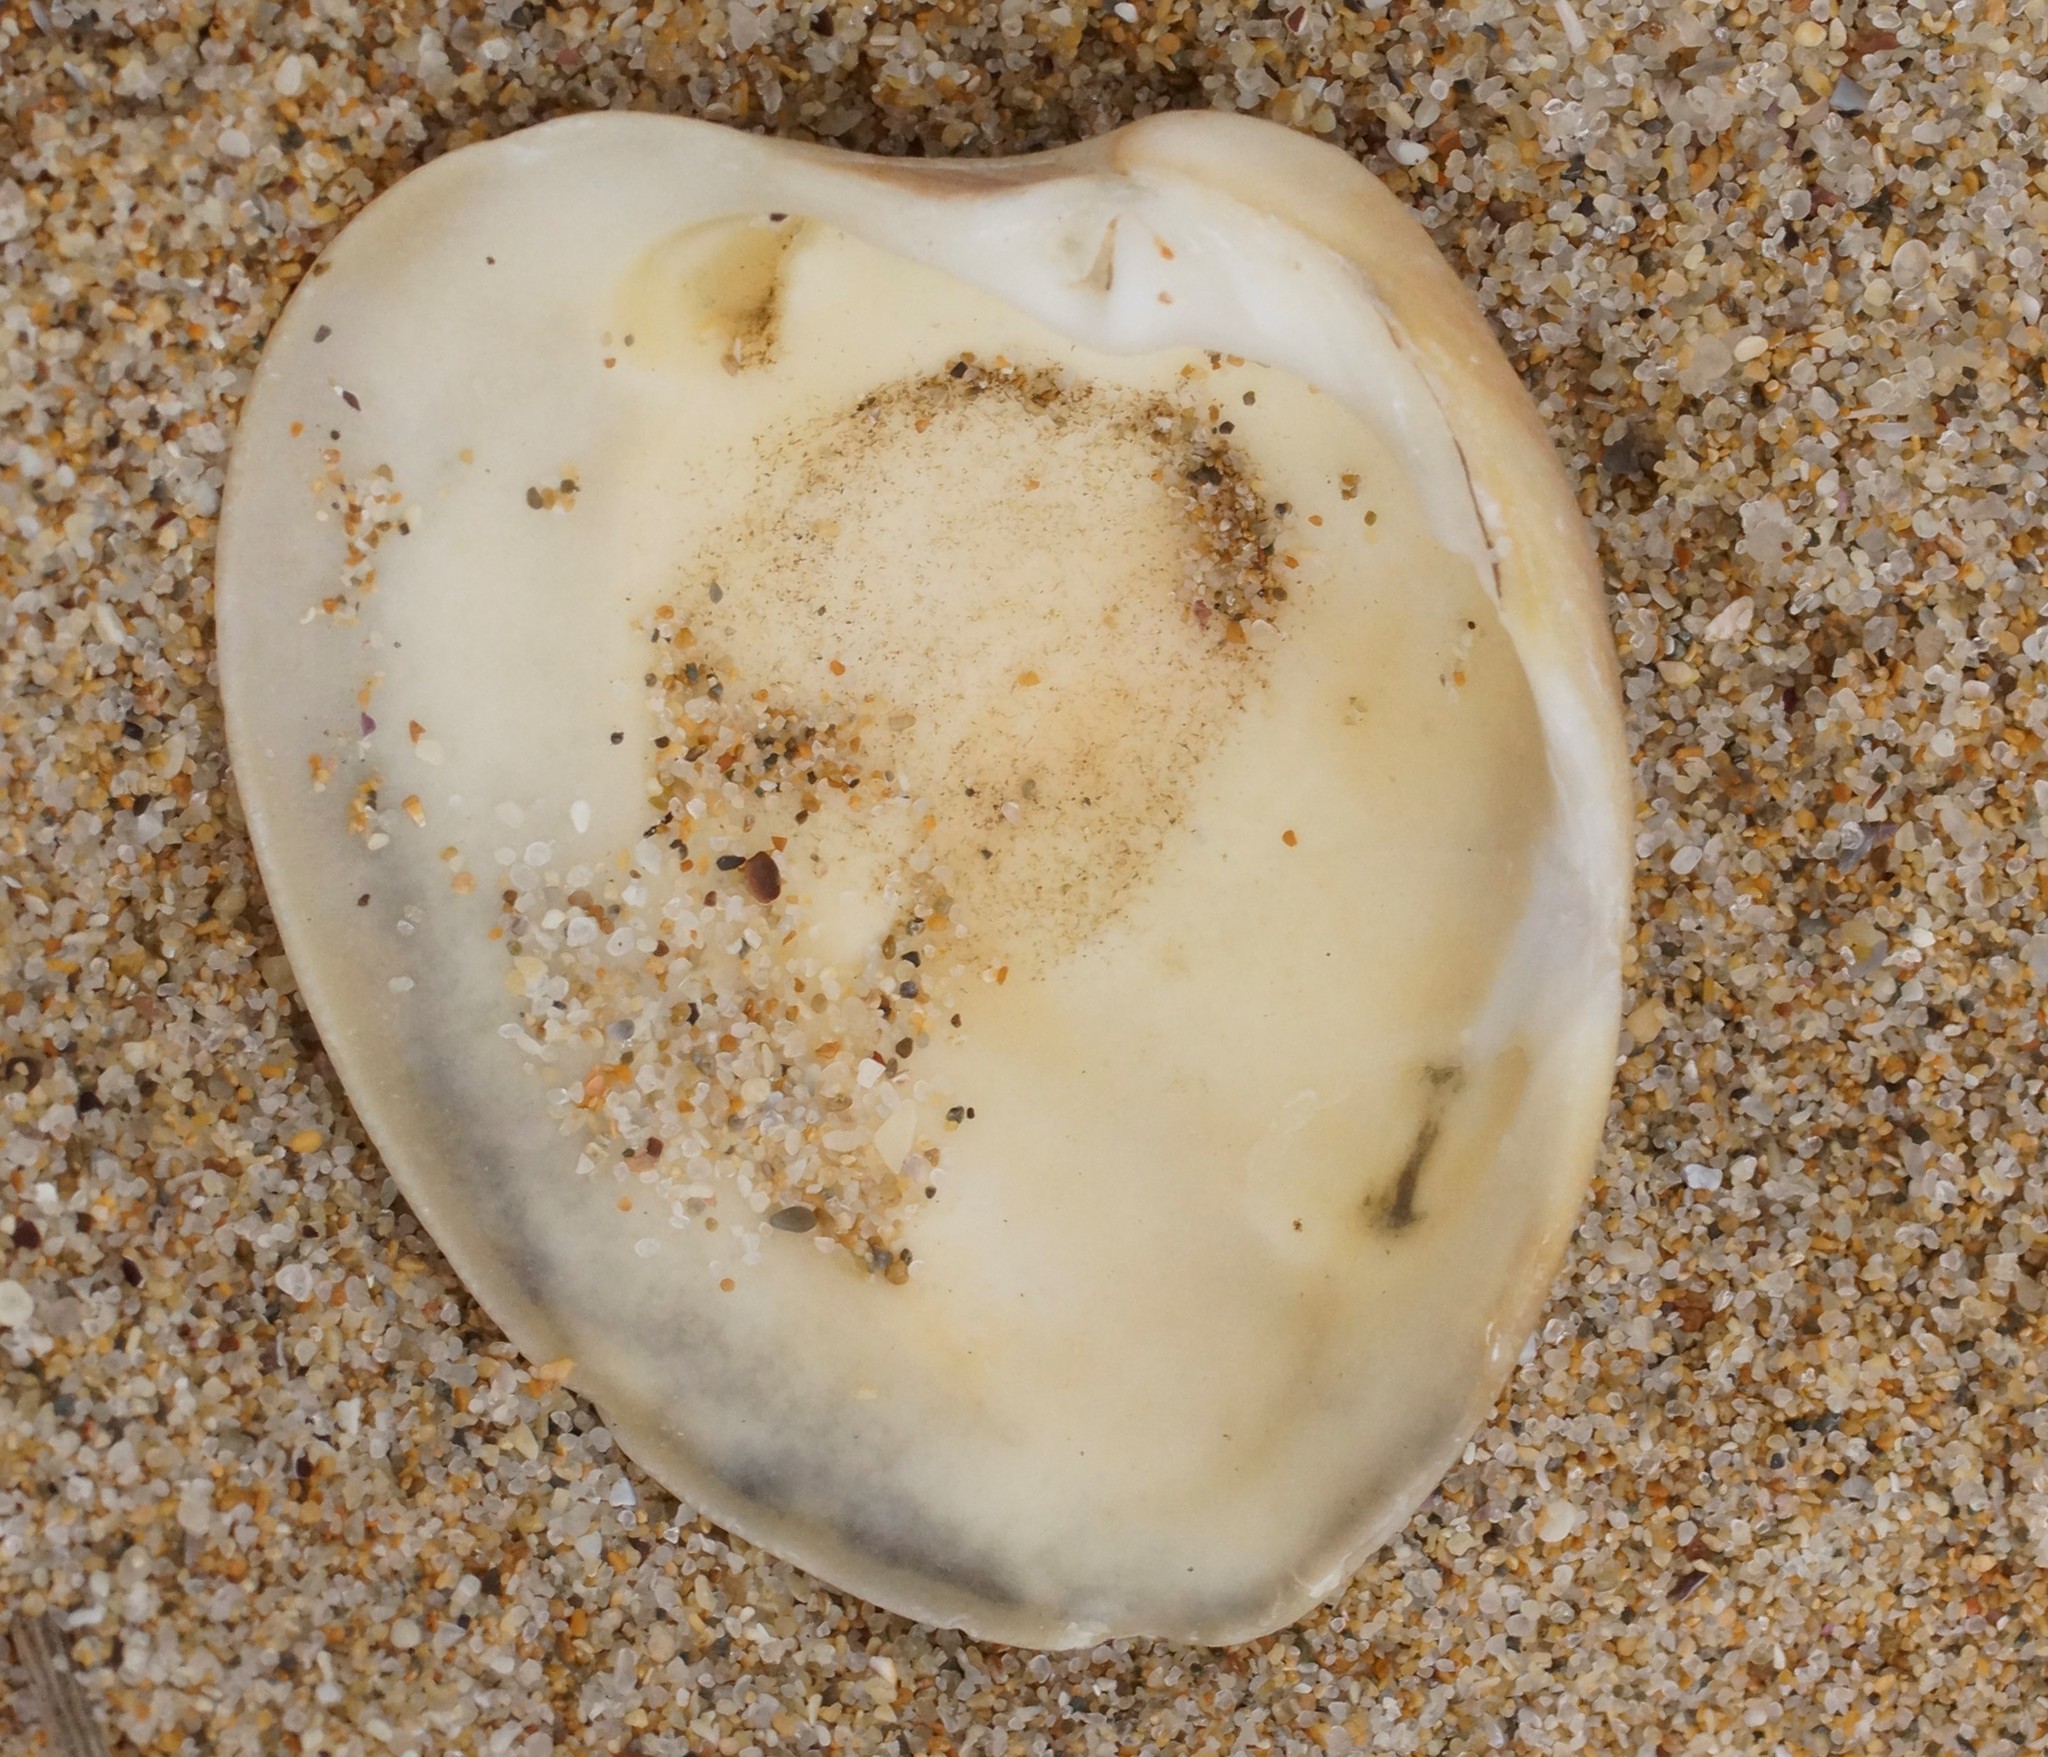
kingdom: Animalia
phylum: Mollusca
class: Bivalvia
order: Venerida
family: Veneridae
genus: Bassina
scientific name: Bassina pachyphylla
